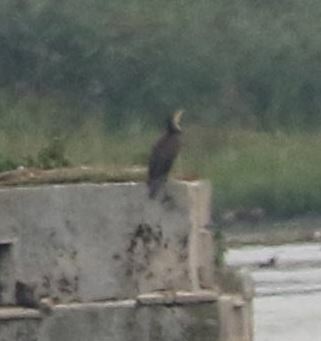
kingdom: Animalia
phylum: Chordata
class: Aves
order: Suliformes
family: Phalacrocoracidae
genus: Phalacrocorax
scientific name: Phalacrocorax carbo
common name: Great cormorant
